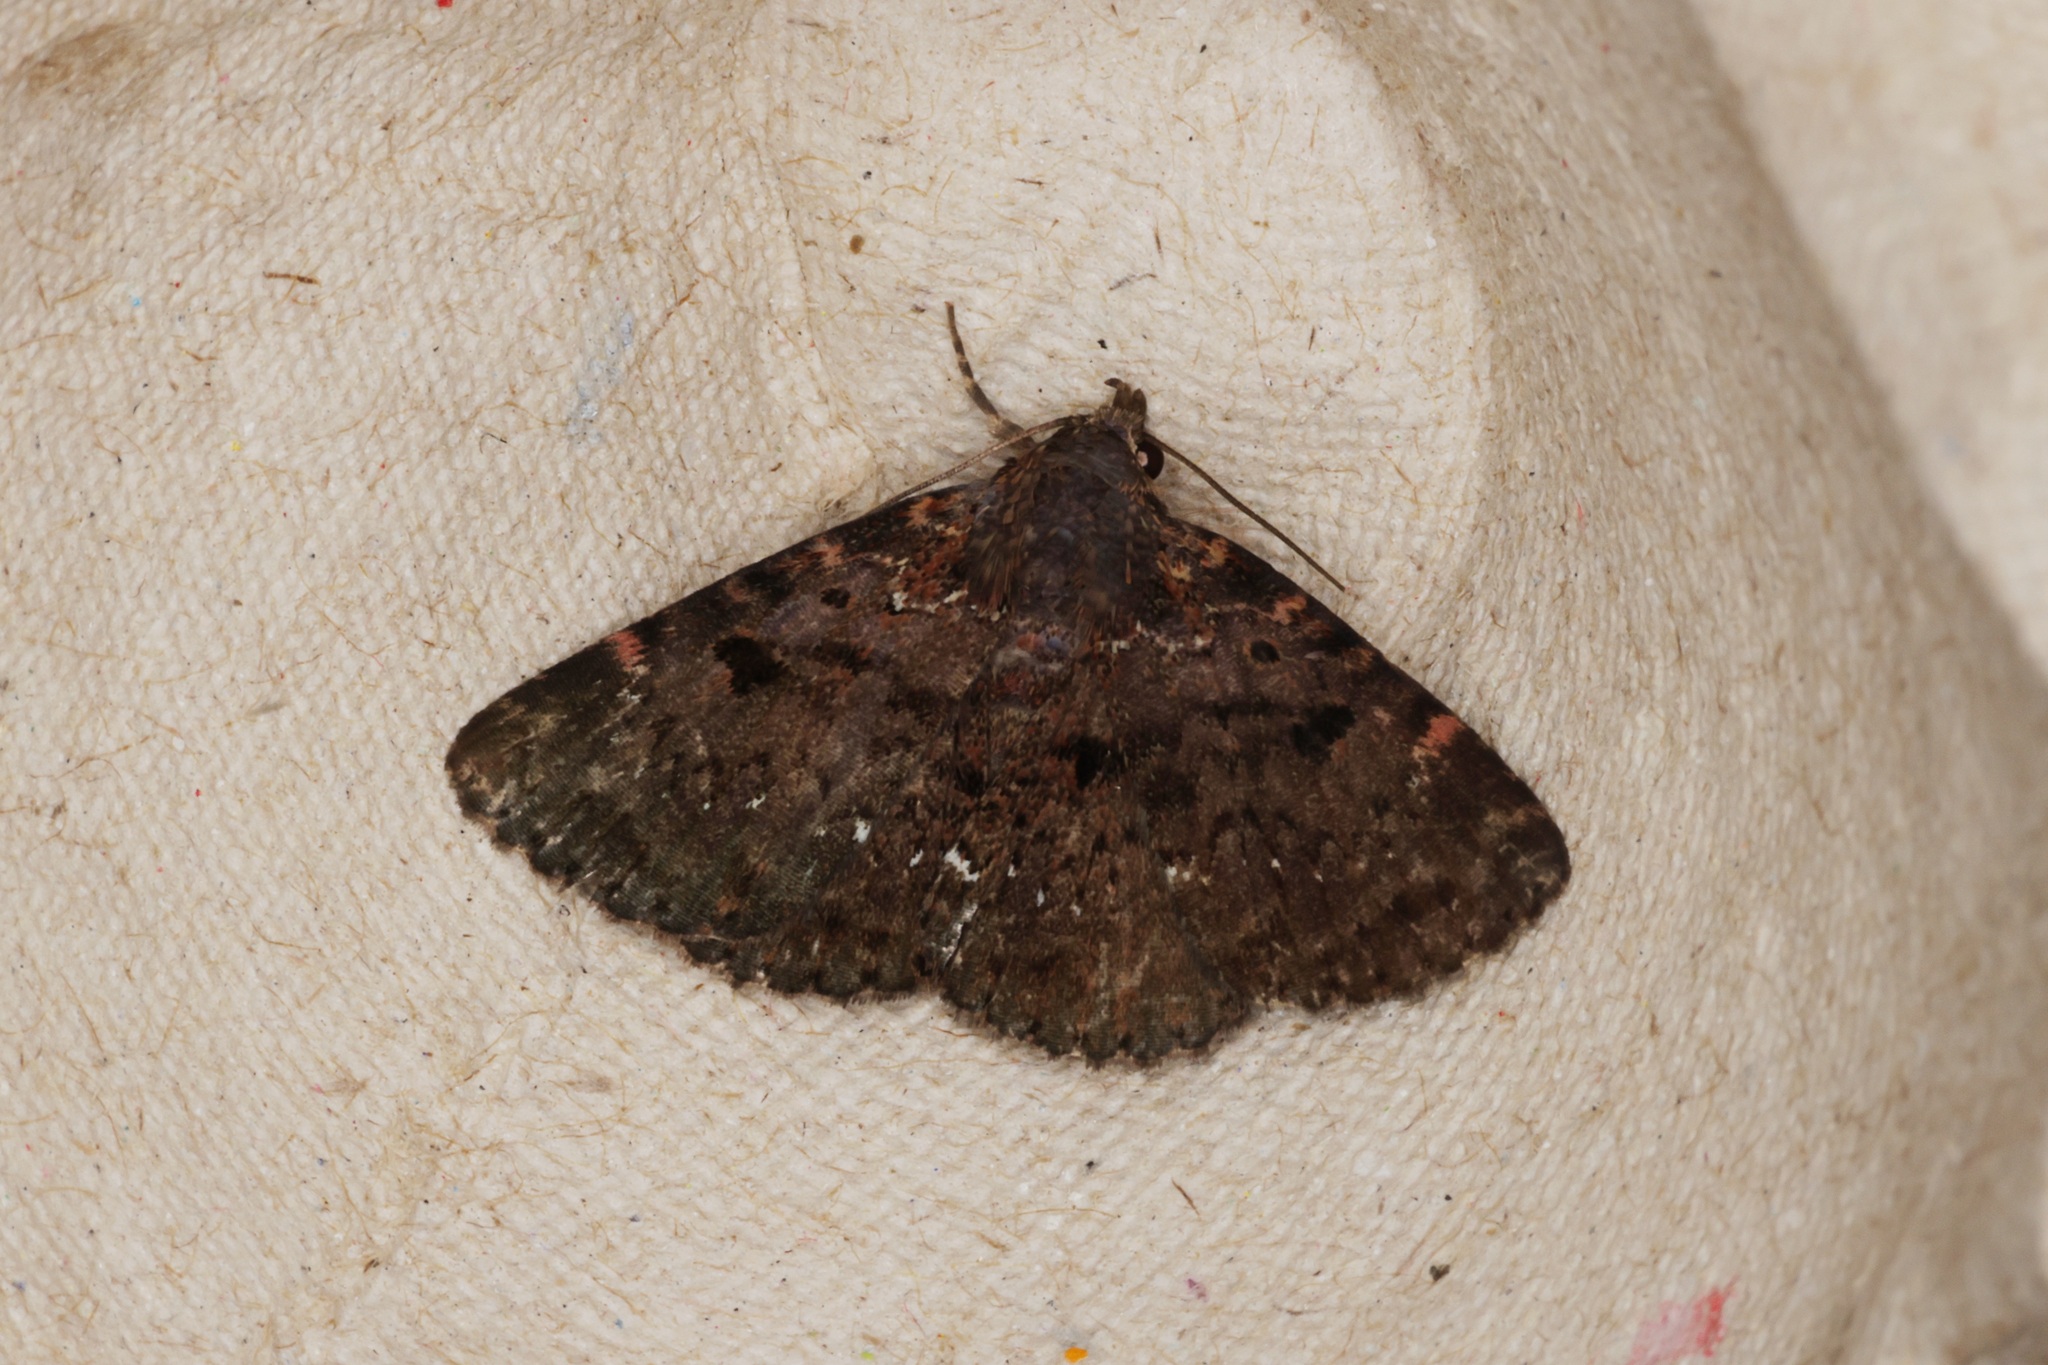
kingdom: Animalia
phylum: Arthropoda
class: Insecta
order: Lepidoptera
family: Erebidae
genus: Diomea
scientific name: Diomea rotundata
